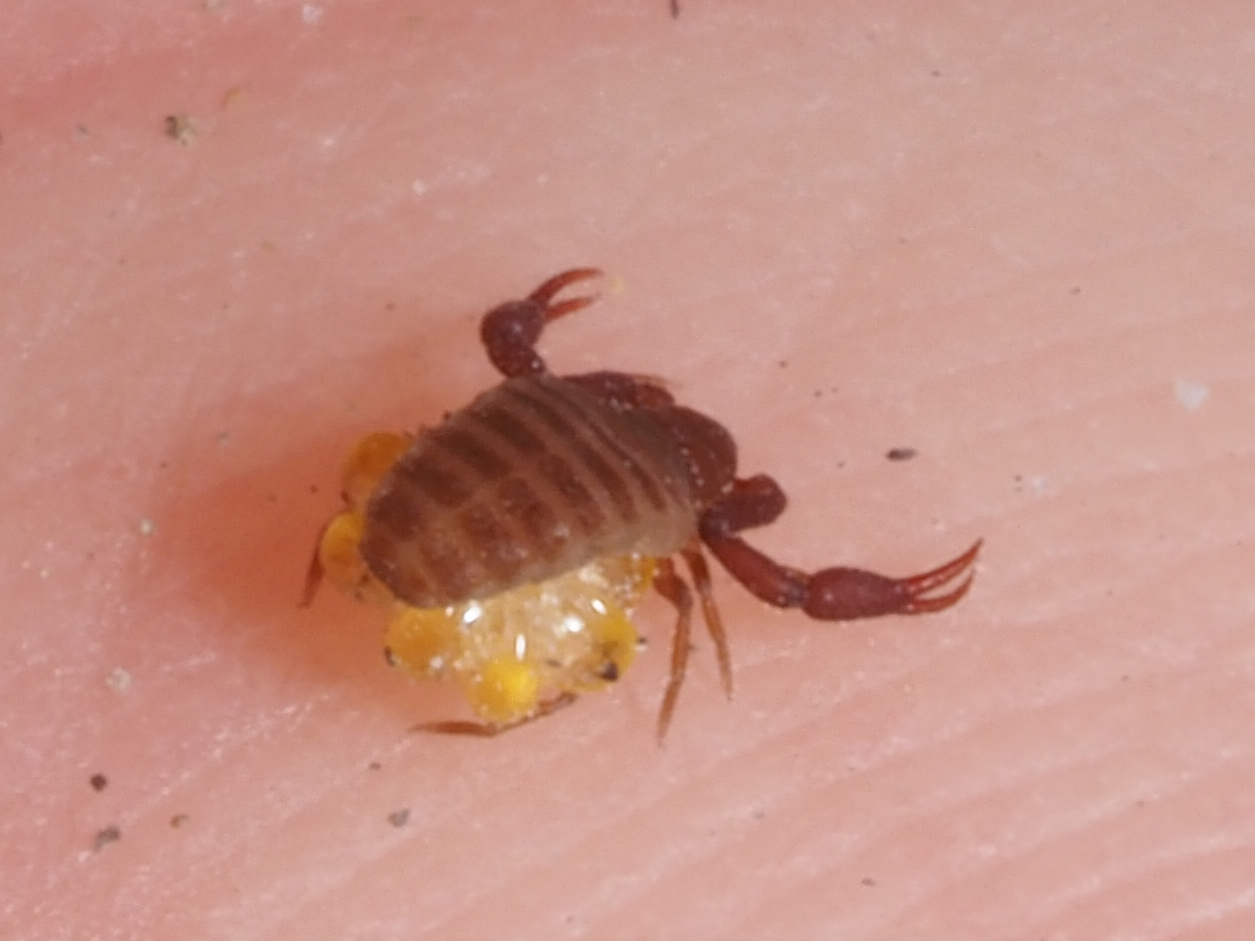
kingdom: Animalia
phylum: Arthropoda
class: Arachnida
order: Pseudoscorpiones
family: Chernetidae
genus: Wyochernes
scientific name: Wyochernes asiaticus
